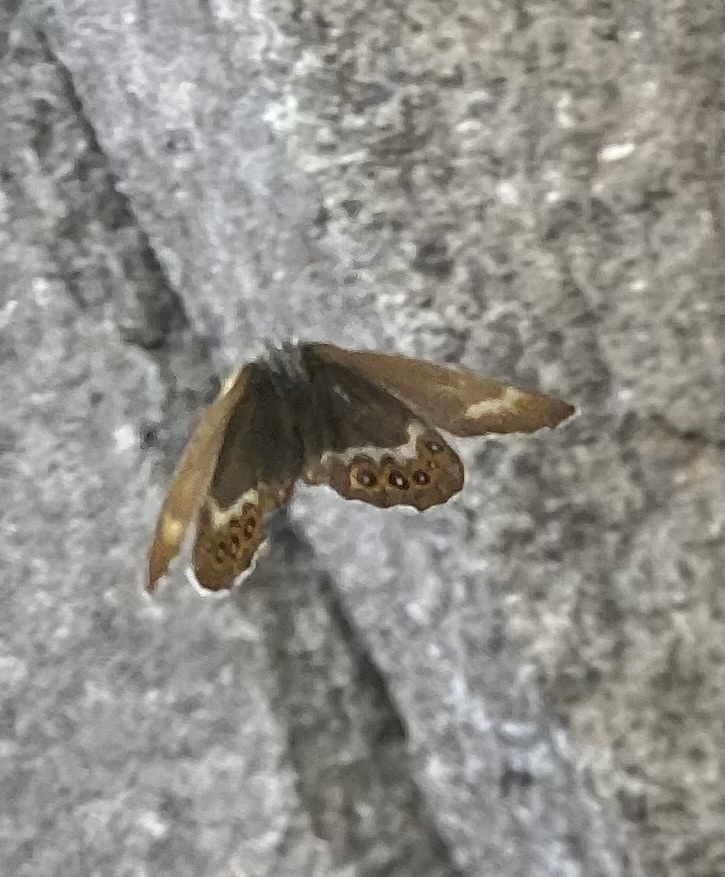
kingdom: Animalia
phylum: Arthropoda
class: Insecta
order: Lepidoptera
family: Nymphalidae
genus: Coenonympha
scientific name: Coenonympha hero
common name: Scarce heath
